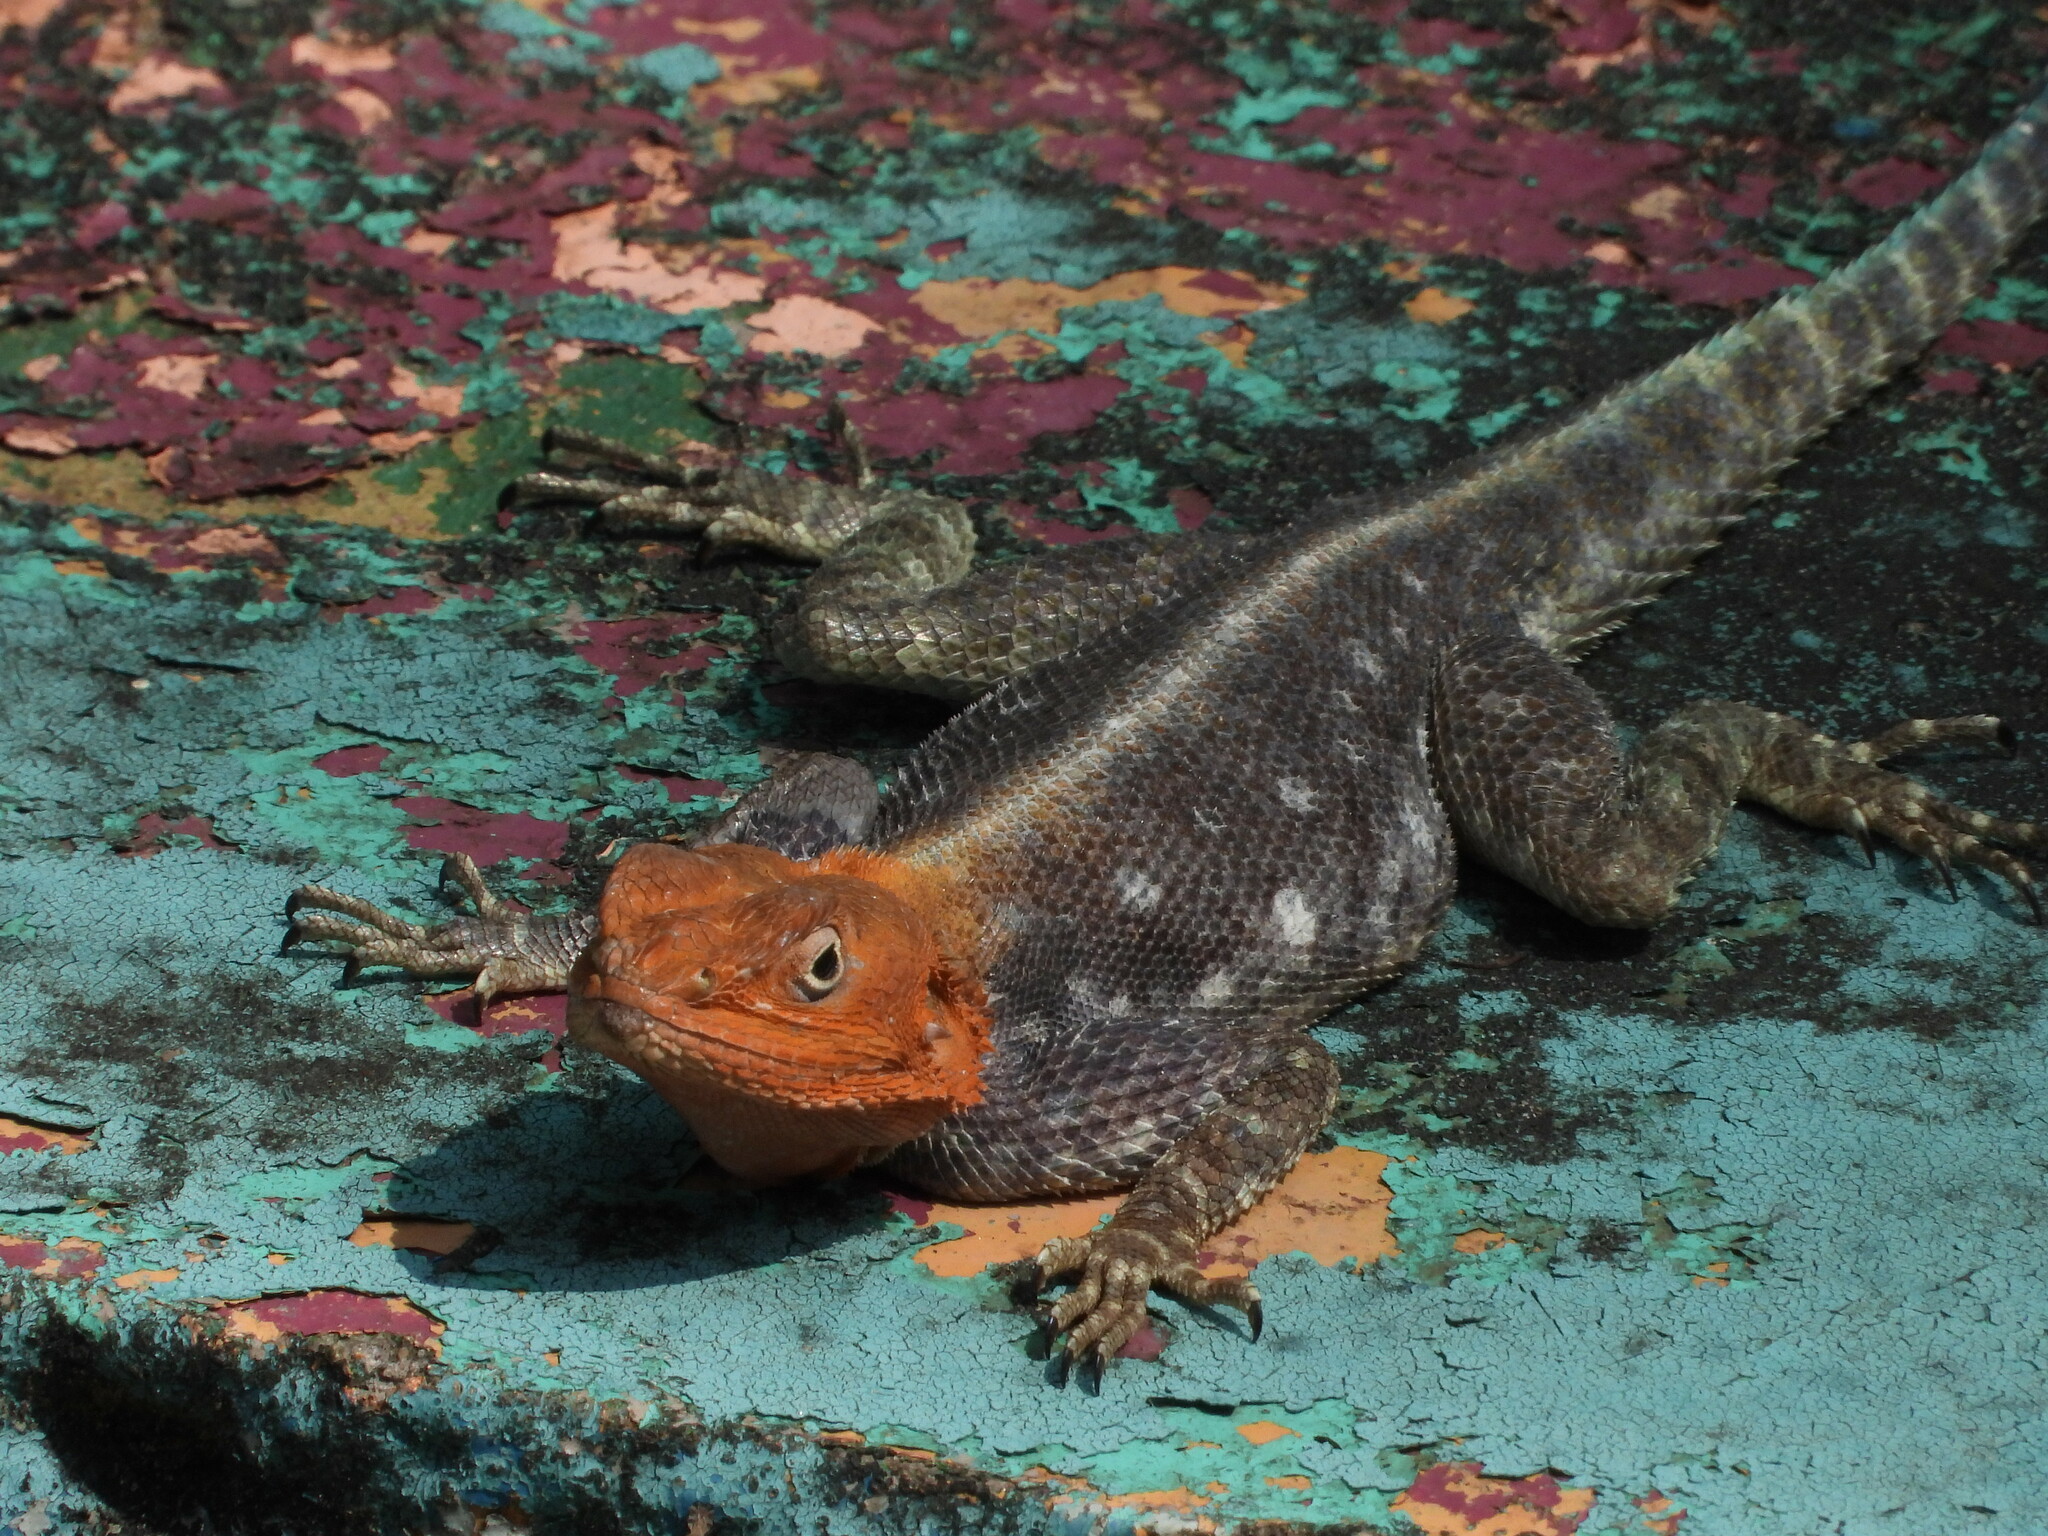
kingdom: Animalia
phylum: Chordata
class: Squamata
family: Agamidae
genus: Agama
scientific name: Agama lionotus
